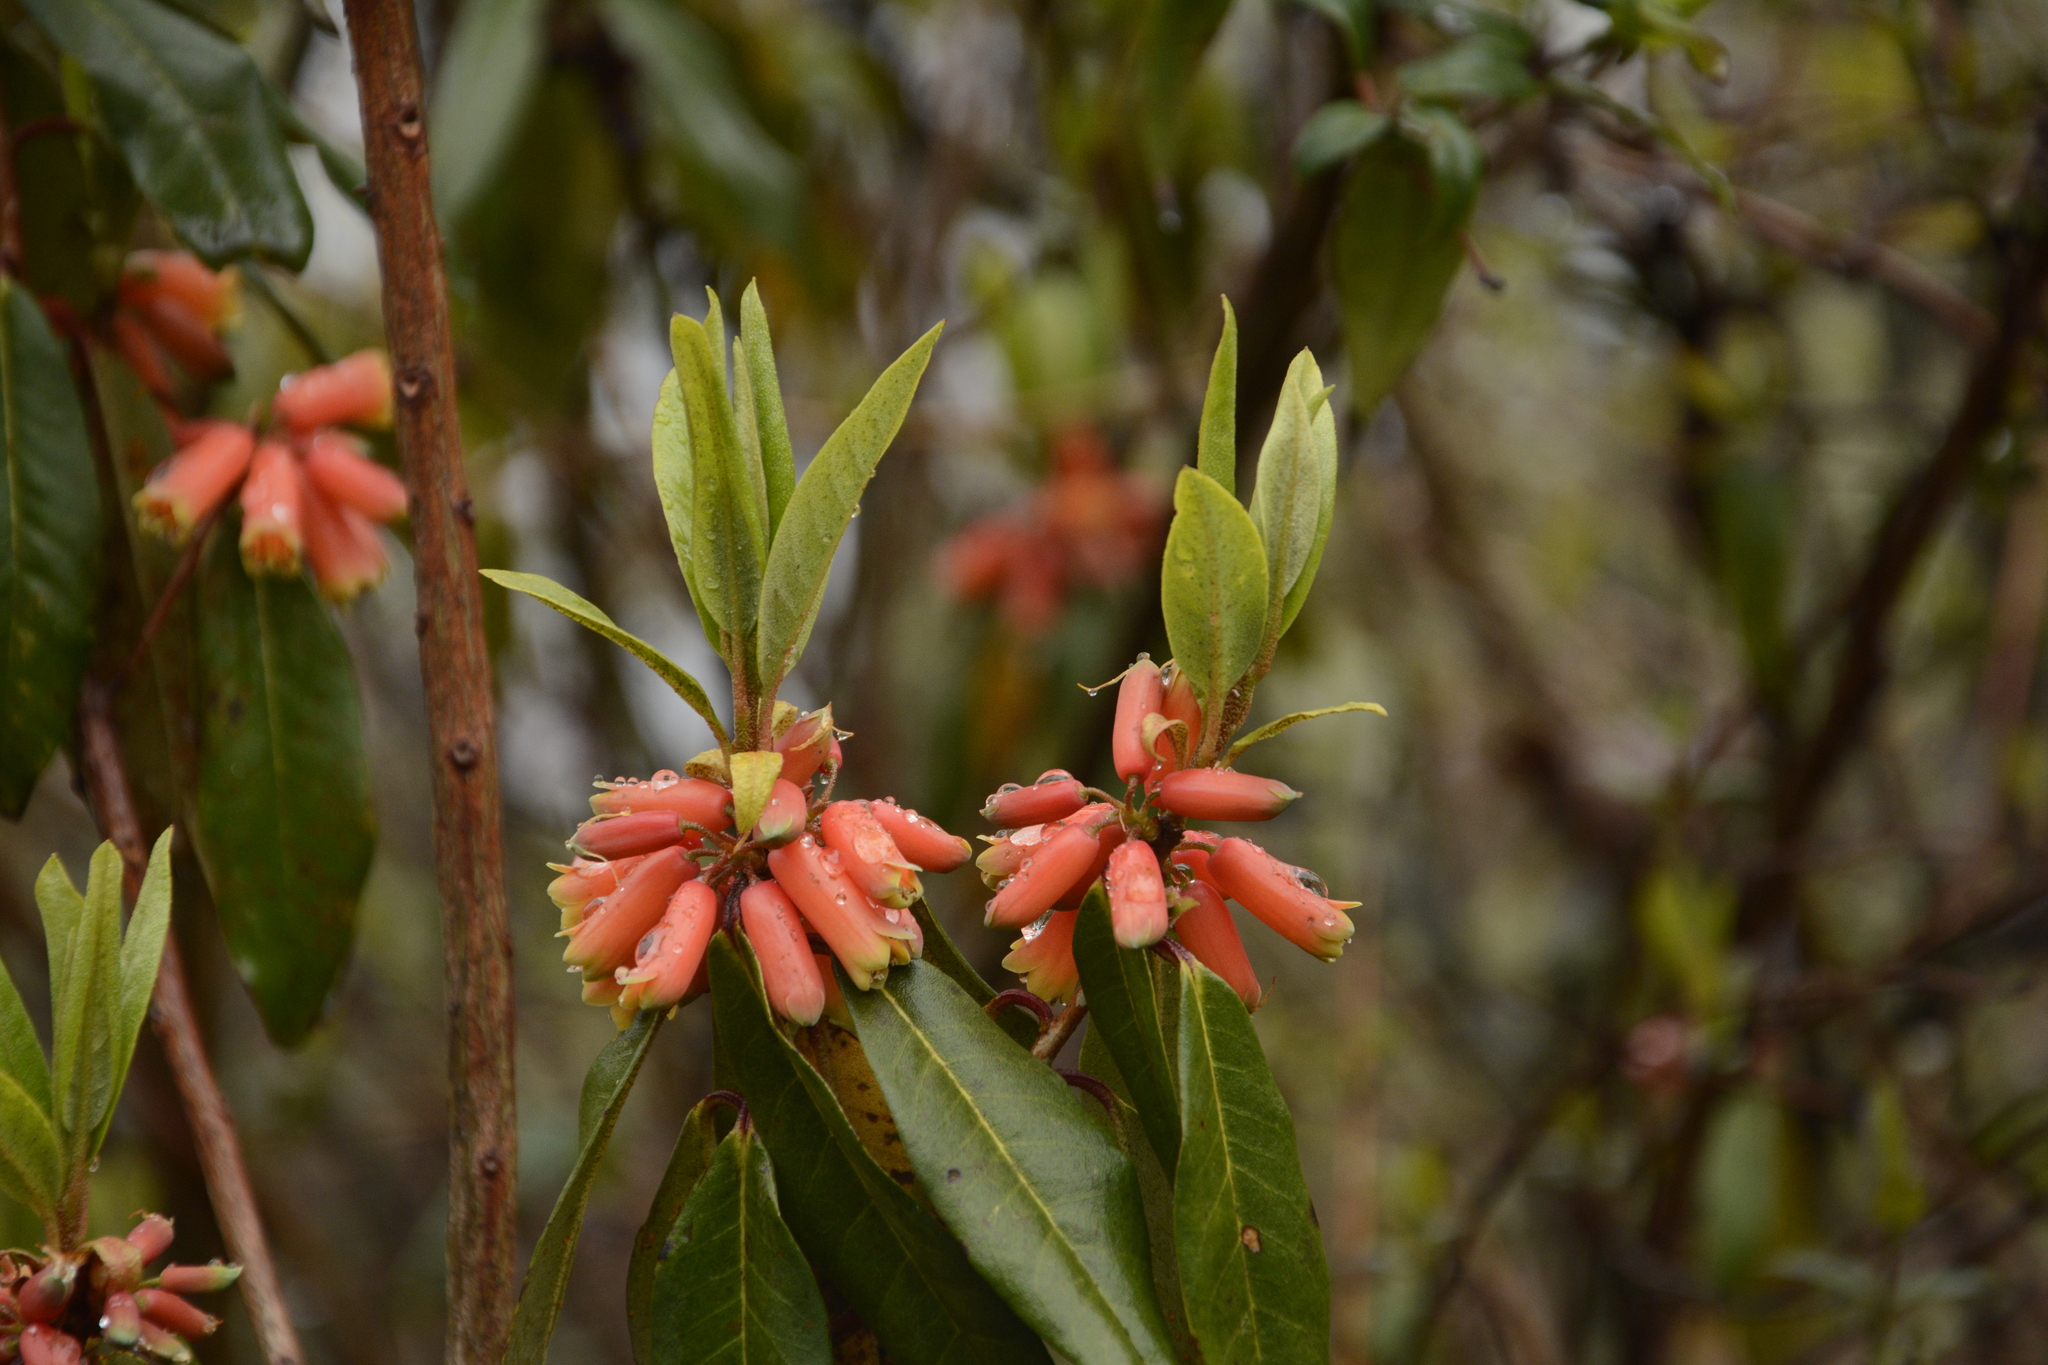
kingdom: Plantae
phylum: Tracheophyta
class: Magnoliopsida
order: Ericales
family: Ericaceae
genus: Rhododendron
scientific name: Rhododendron keysii
